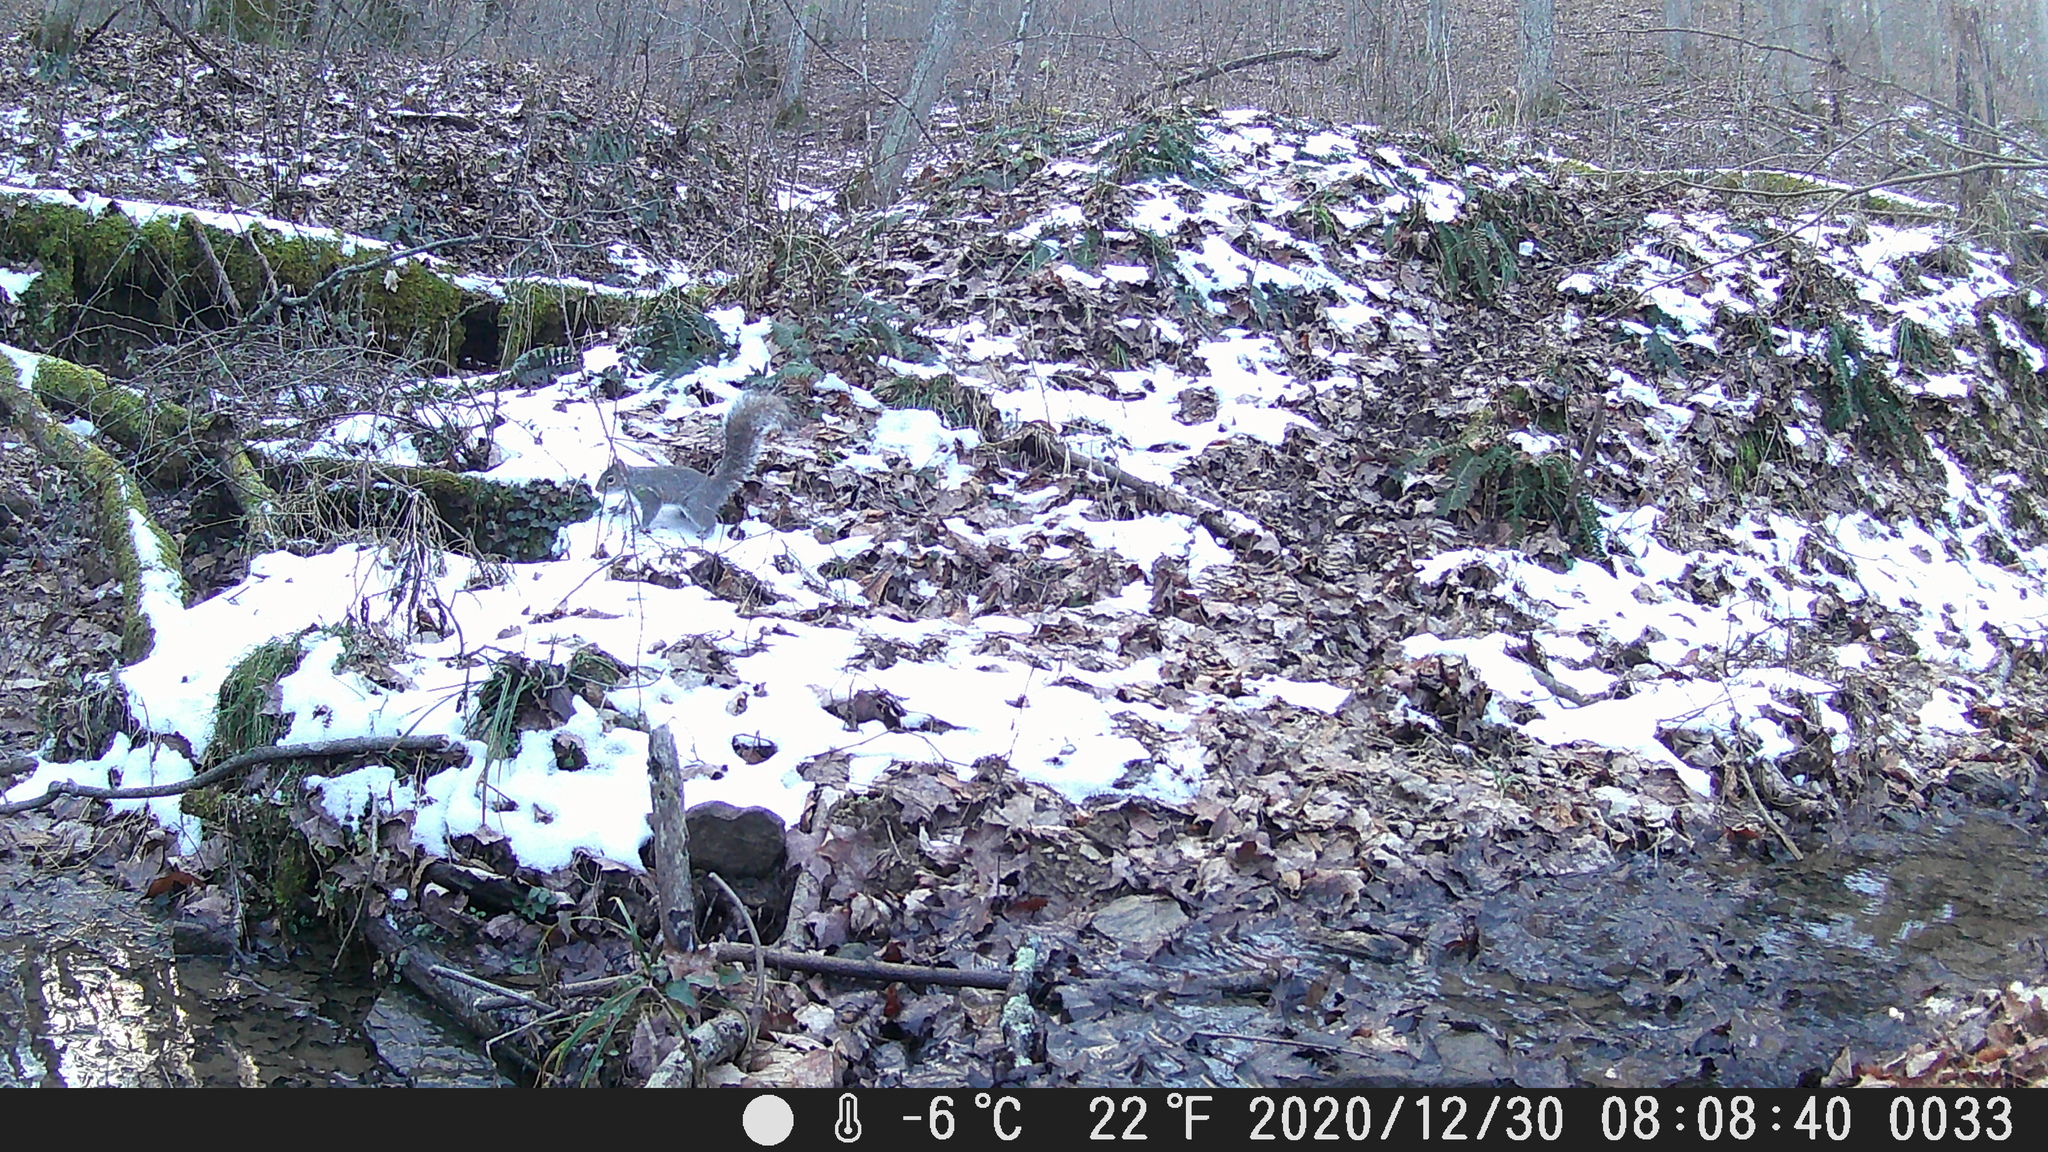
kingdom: Animalia
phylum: Chordata
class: Mammalia
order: Rodentia
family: Sciuridae
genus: Sciurus
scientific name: Sciurus carolinensis
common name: Eastern gray squirrel
